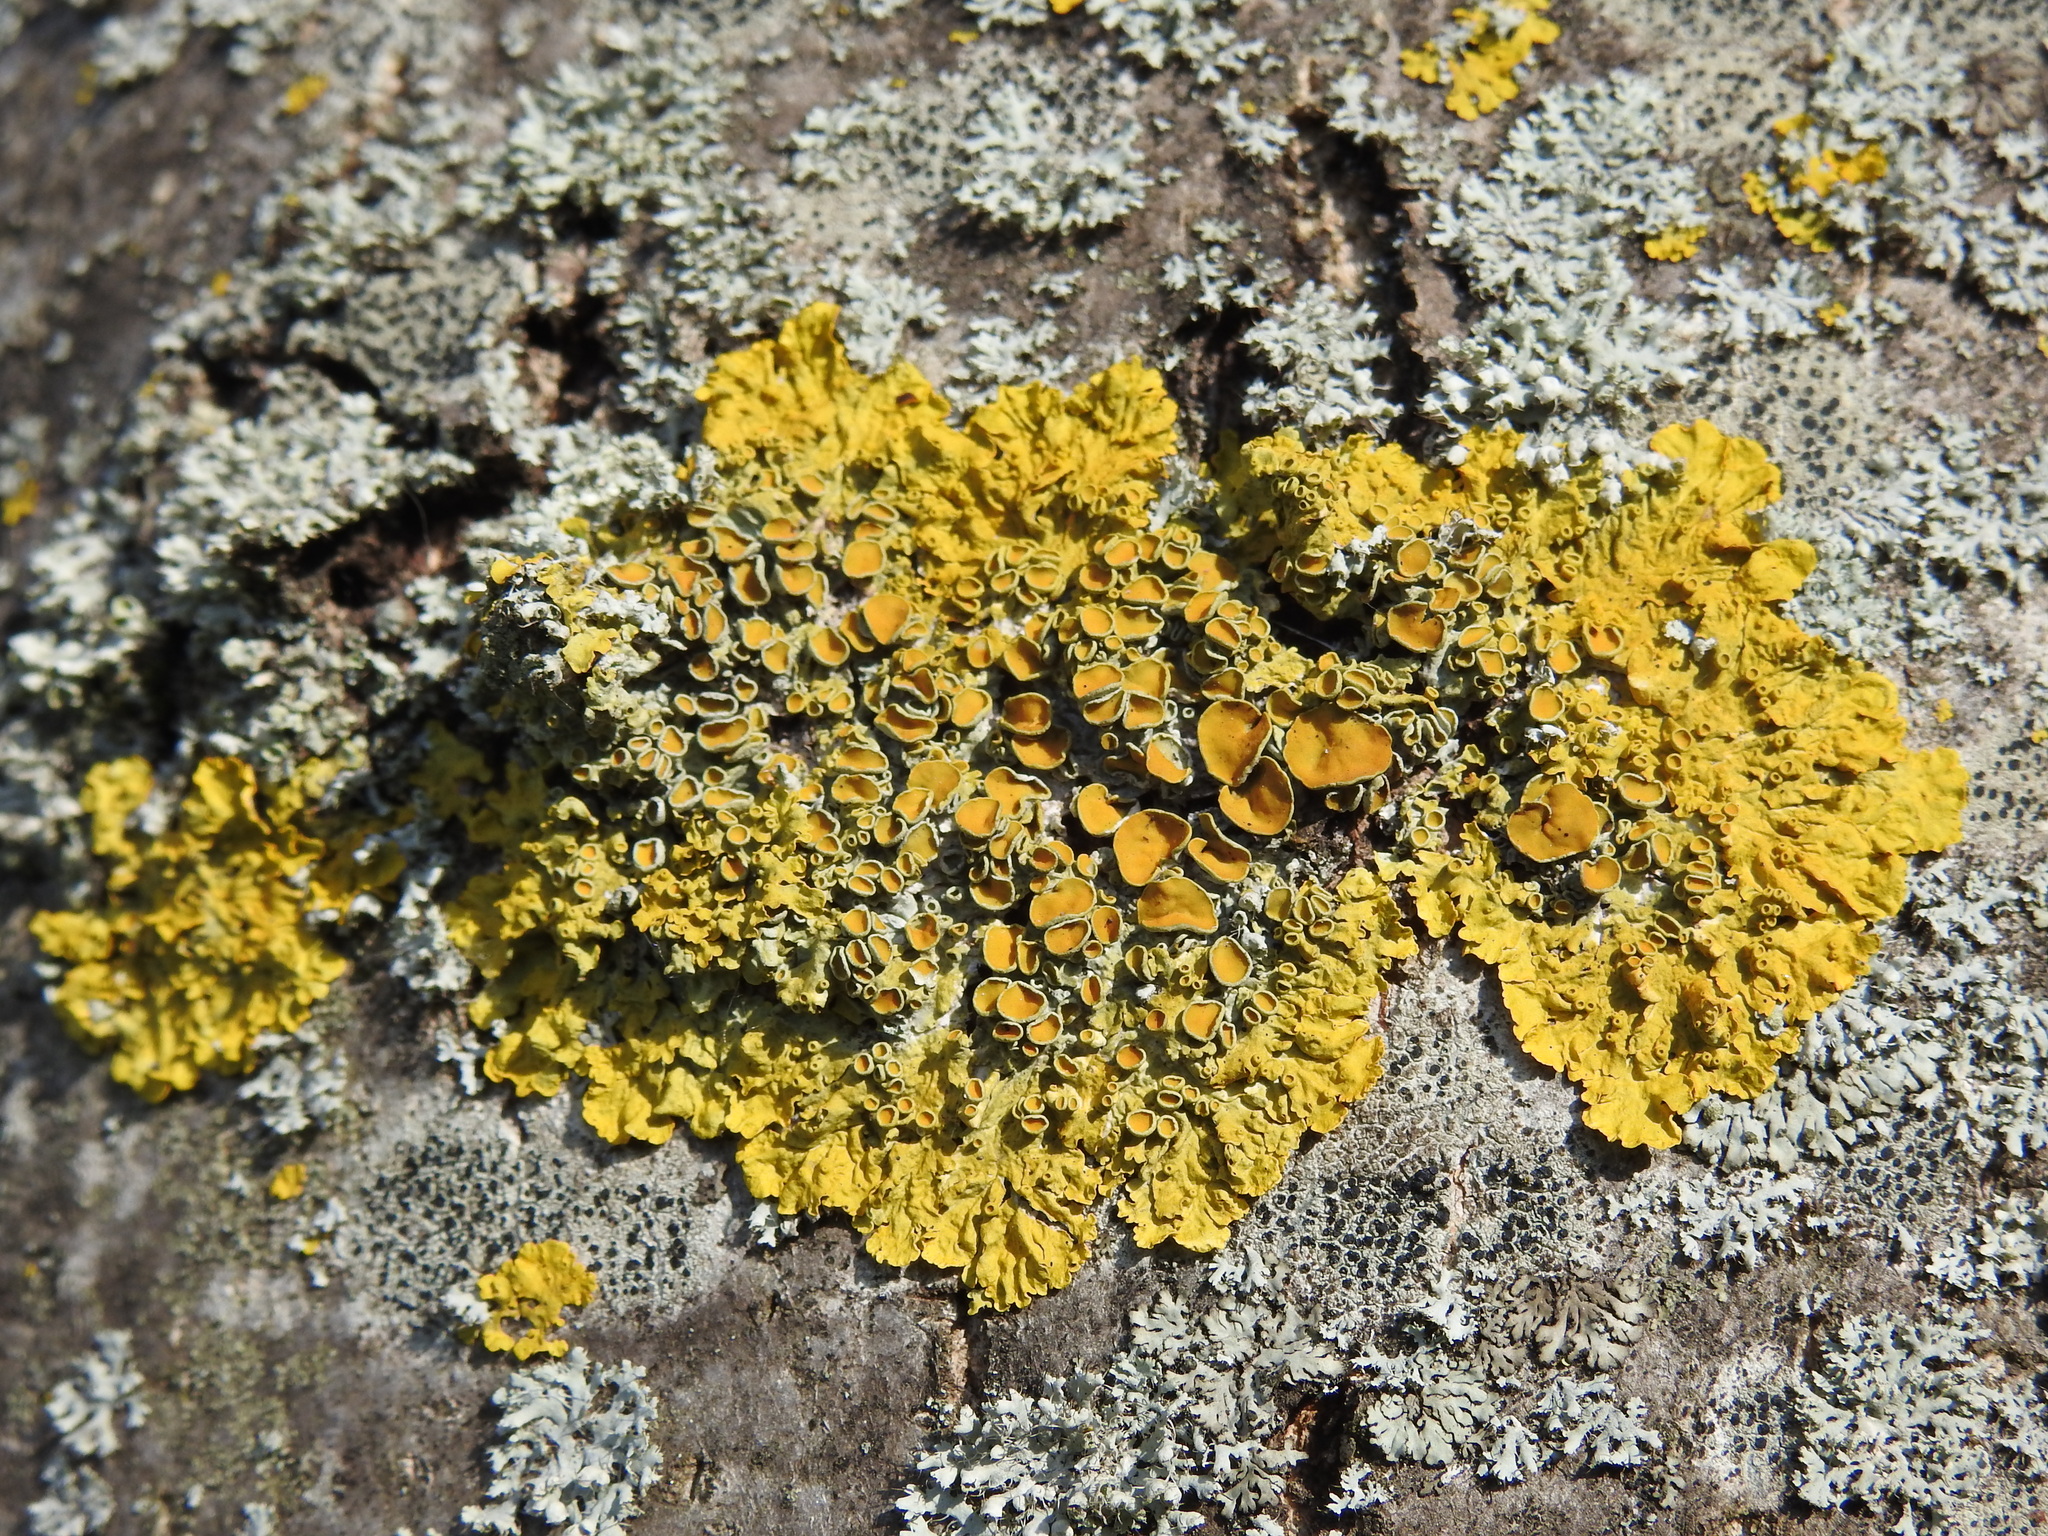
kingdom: Fungi
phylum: Ascomycota
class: Lecanoromycetes
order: Teloschistales
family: Teloschistaceae
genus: Xanthoria
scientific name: Xanthoria parietina
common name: Common orange lichen
